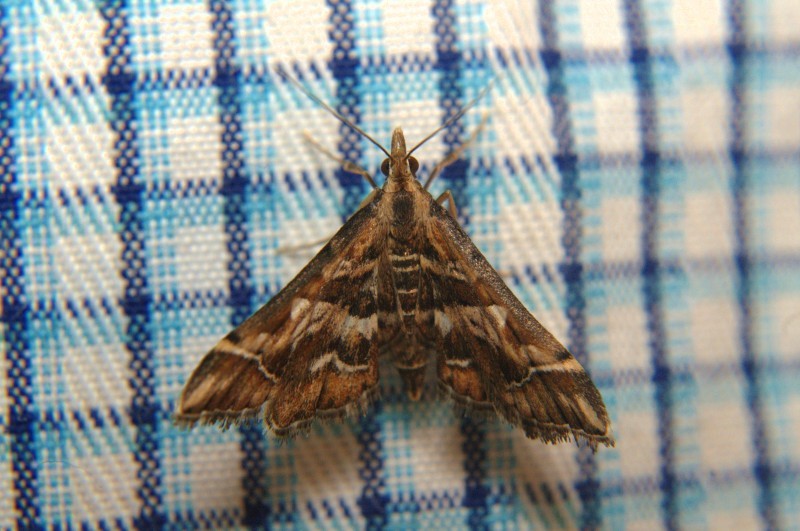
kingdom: Animalia
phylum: Arthropoda
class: Insecta
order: Lepidoptera
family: Crambidae
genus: Diasemia
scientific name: Diasemia accalis
